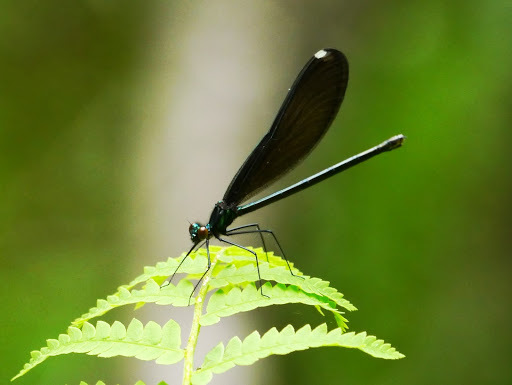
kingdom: Animalia
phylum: Arthropoda
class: Insecta
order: Odonata
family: Calopterygidae
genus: Calopteryx
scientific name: Calopteryx maculata
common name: Ebony jewelwing
